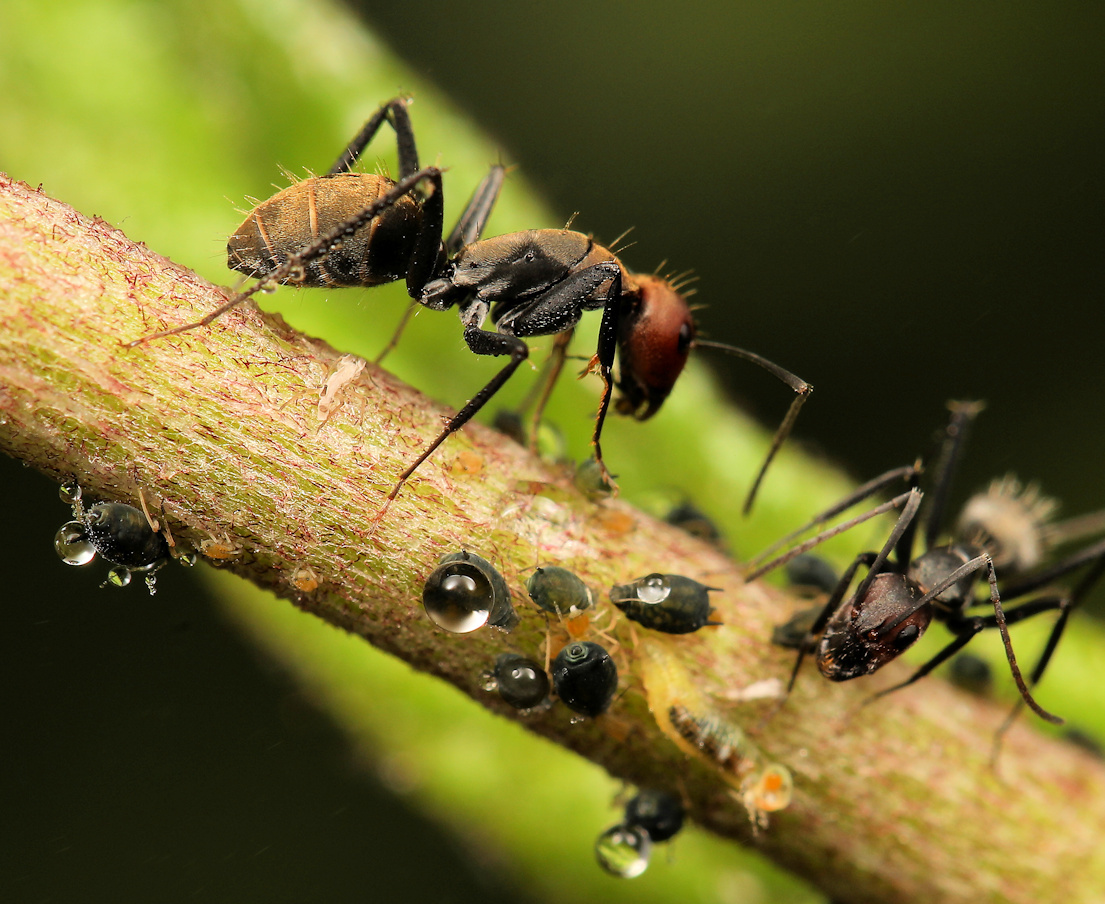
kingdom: Animalia
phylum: Arthropoda
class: Insecta
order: Hymenoptera
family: Formicidae
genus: Camponotus
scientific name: Camponotus rufoglaucus
